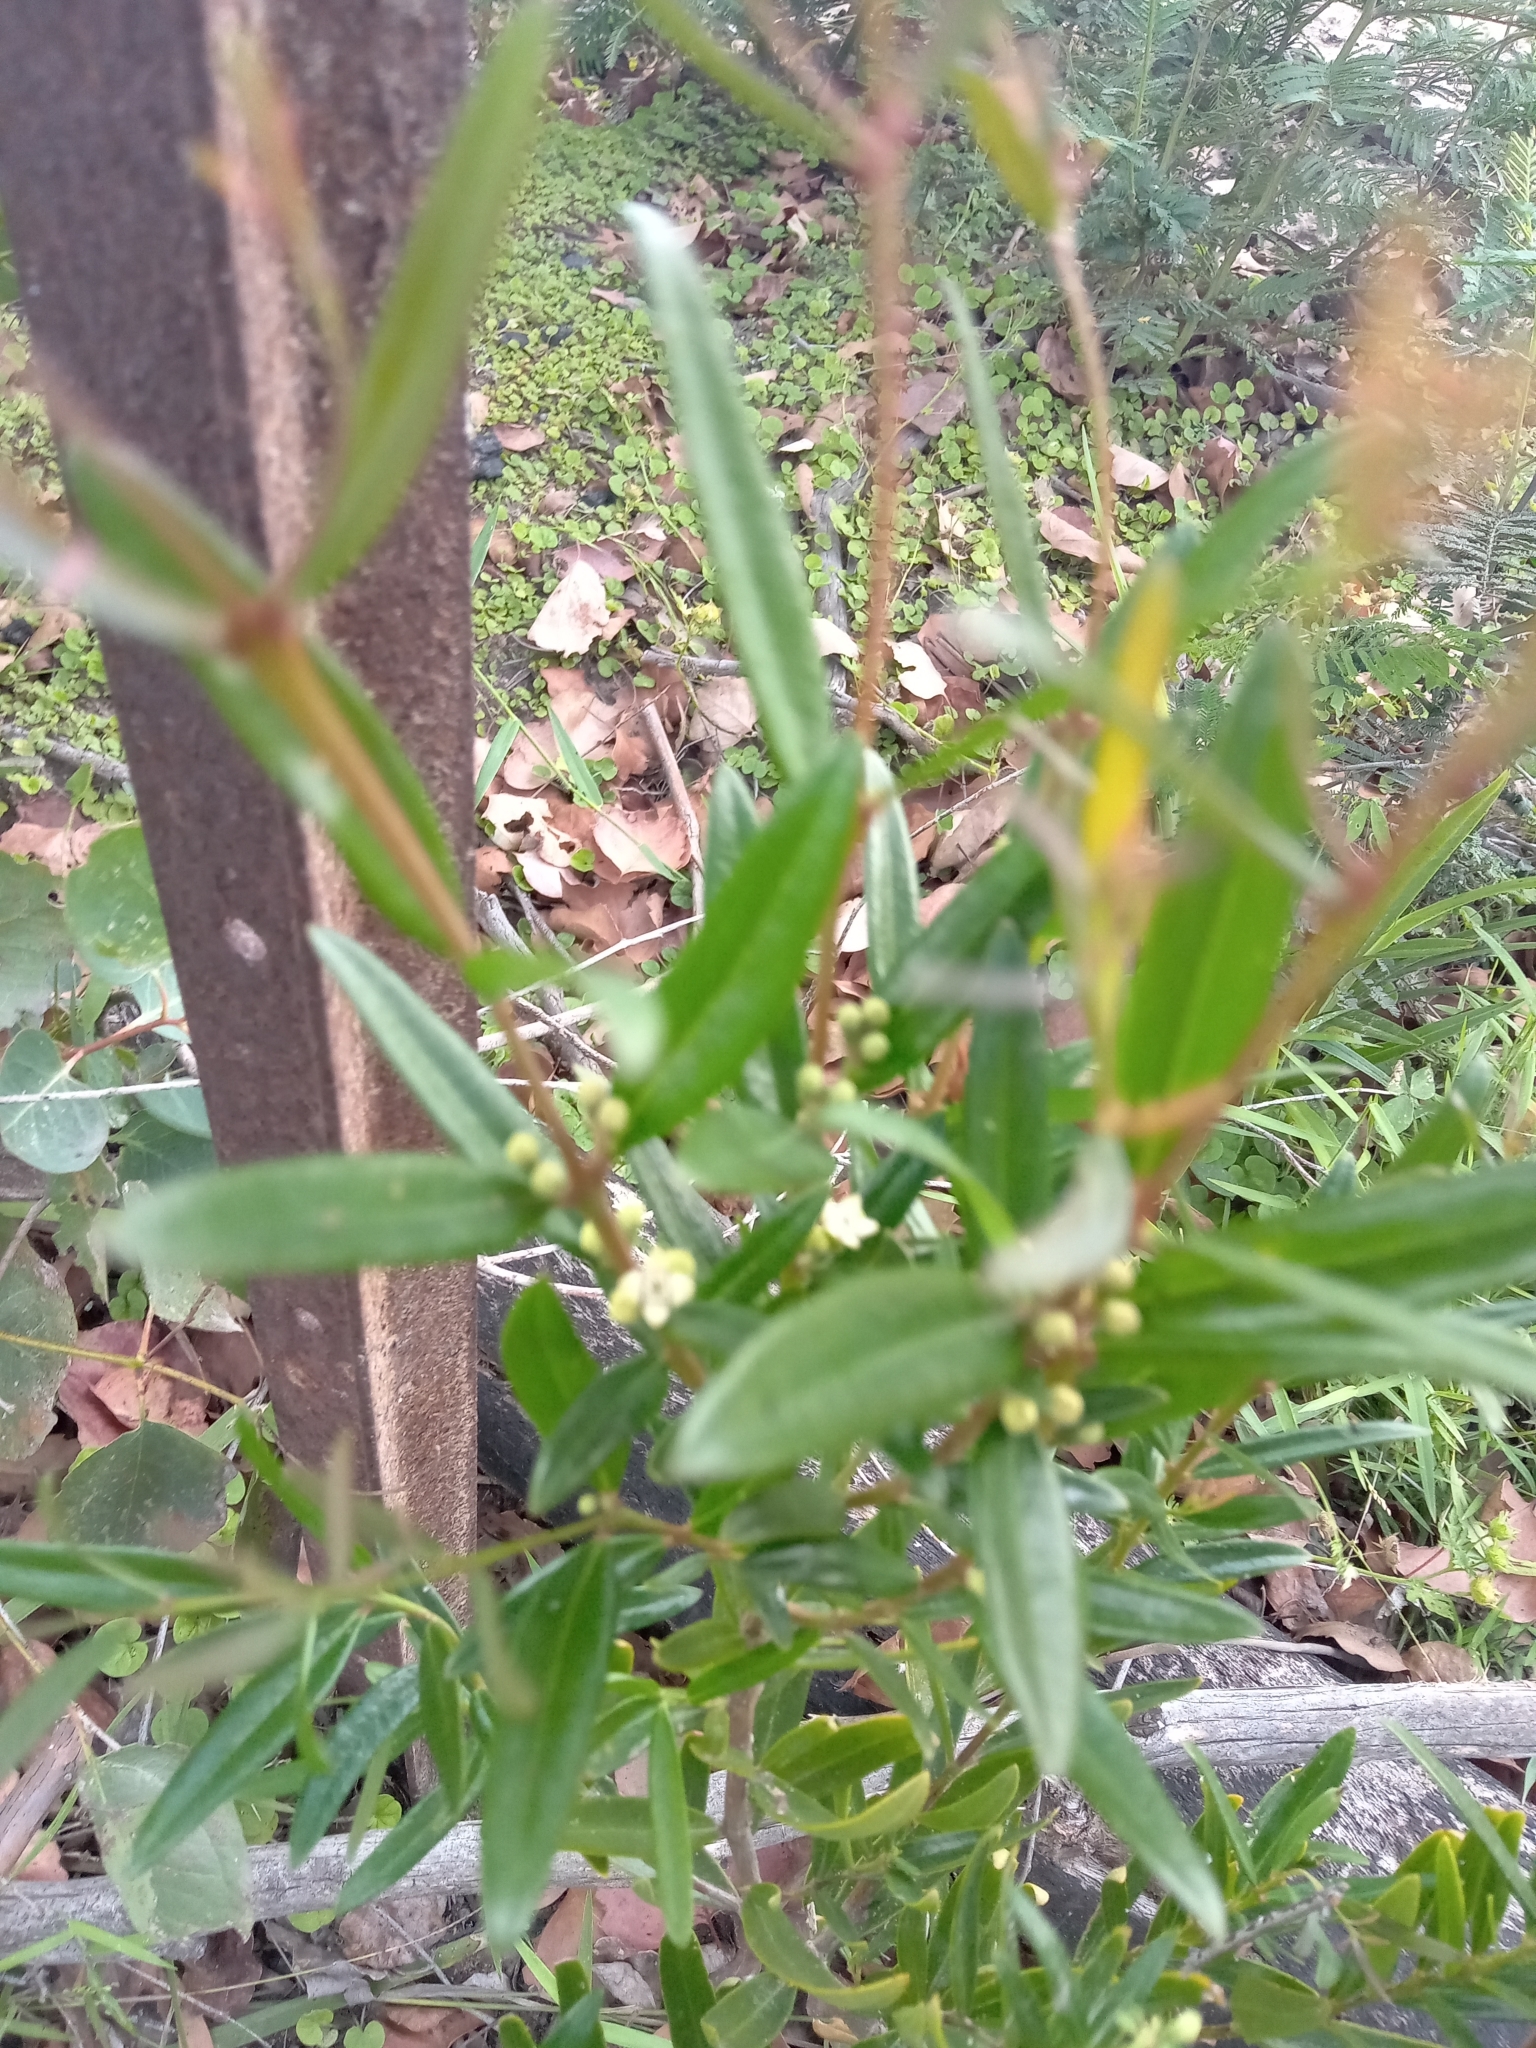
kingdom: Plantae
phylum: Tracheophyta
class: Magnoliopsida
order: Santalales
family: Santalaceae
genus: Santalum
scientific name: Santalum obtusifolium
